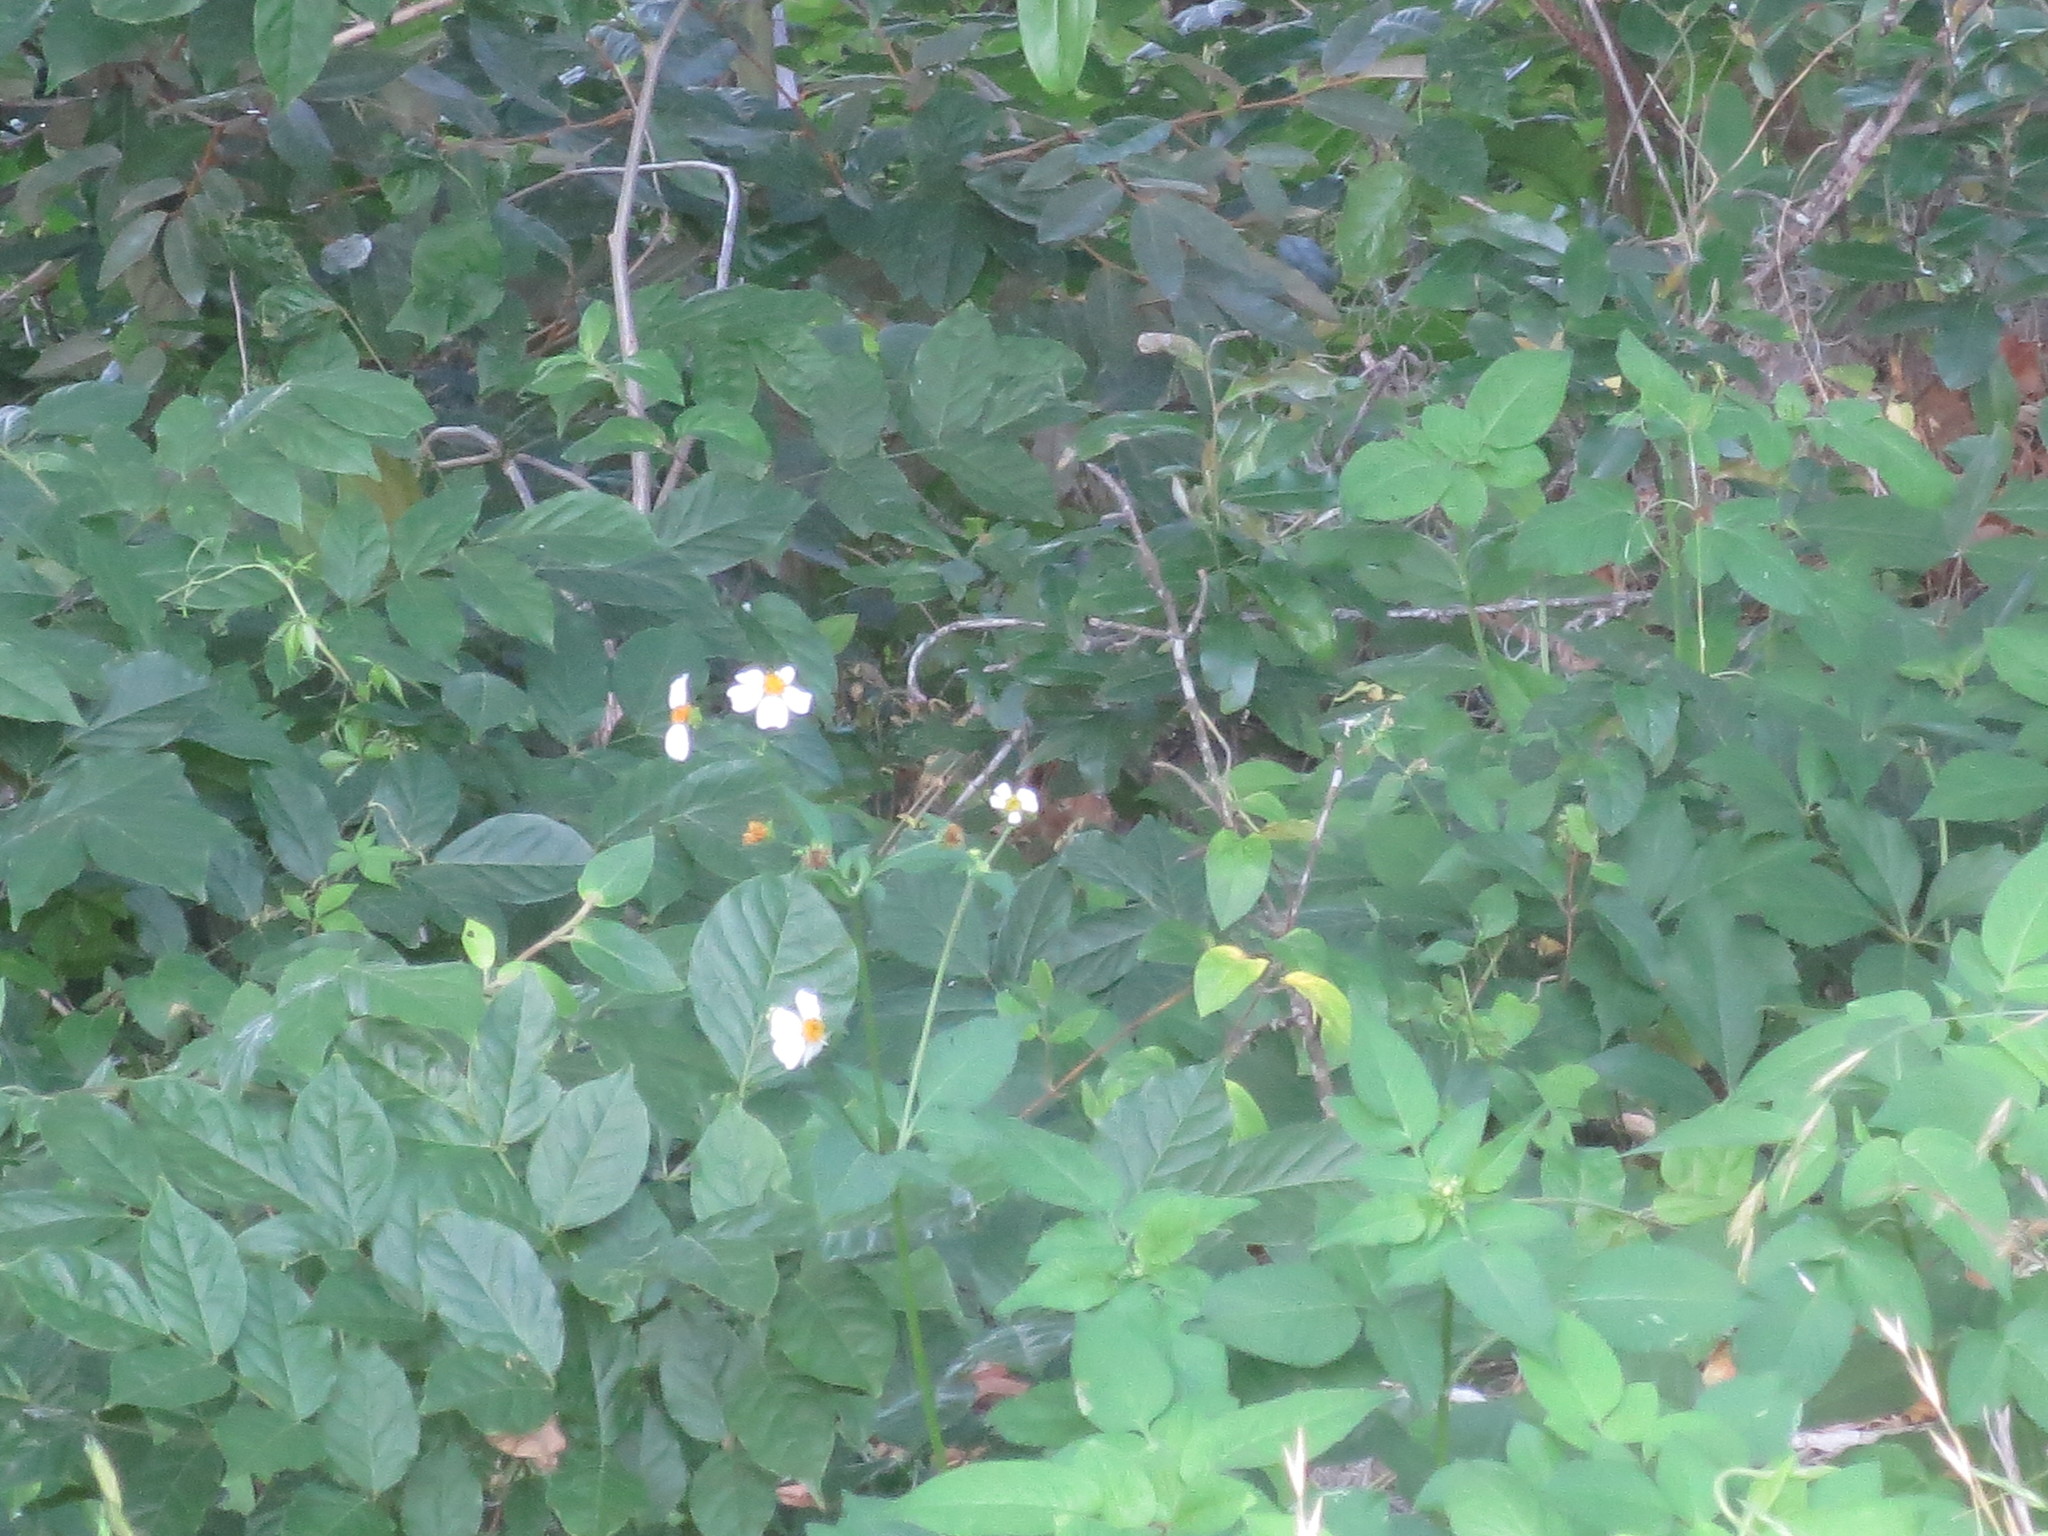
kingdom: Plantae
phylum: Tracheophyta
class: Magnoliopsida
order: Asterales
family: Asteraceae
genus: Bidens
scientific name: Bidens alba
